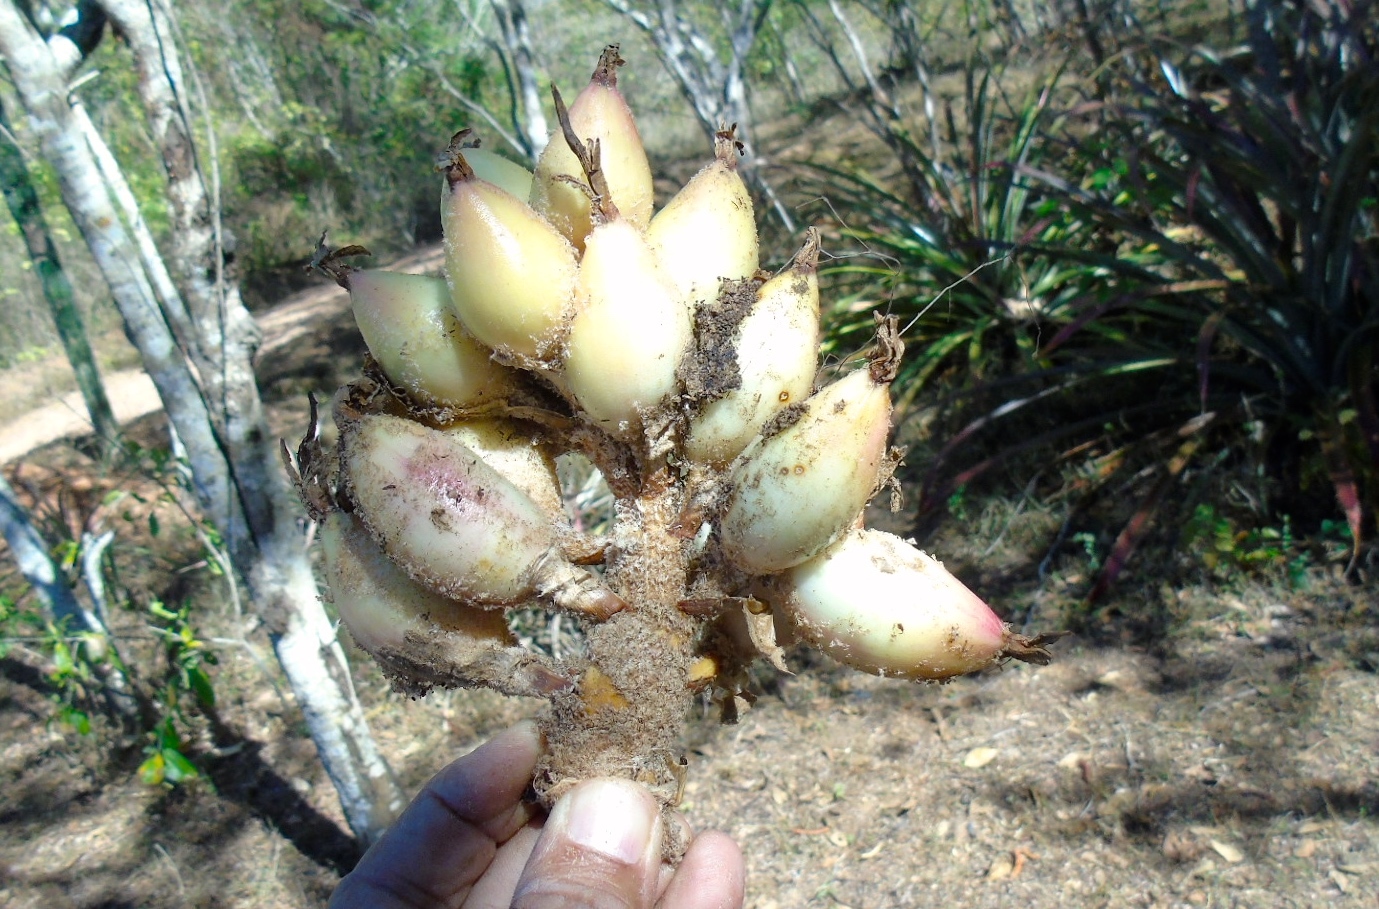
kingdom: Plantae
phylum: Tracheophyta
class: Liliopsida
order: Poales
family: Bromeliaceae
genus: Bromelia
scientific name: Bromelia hemisphaerica
